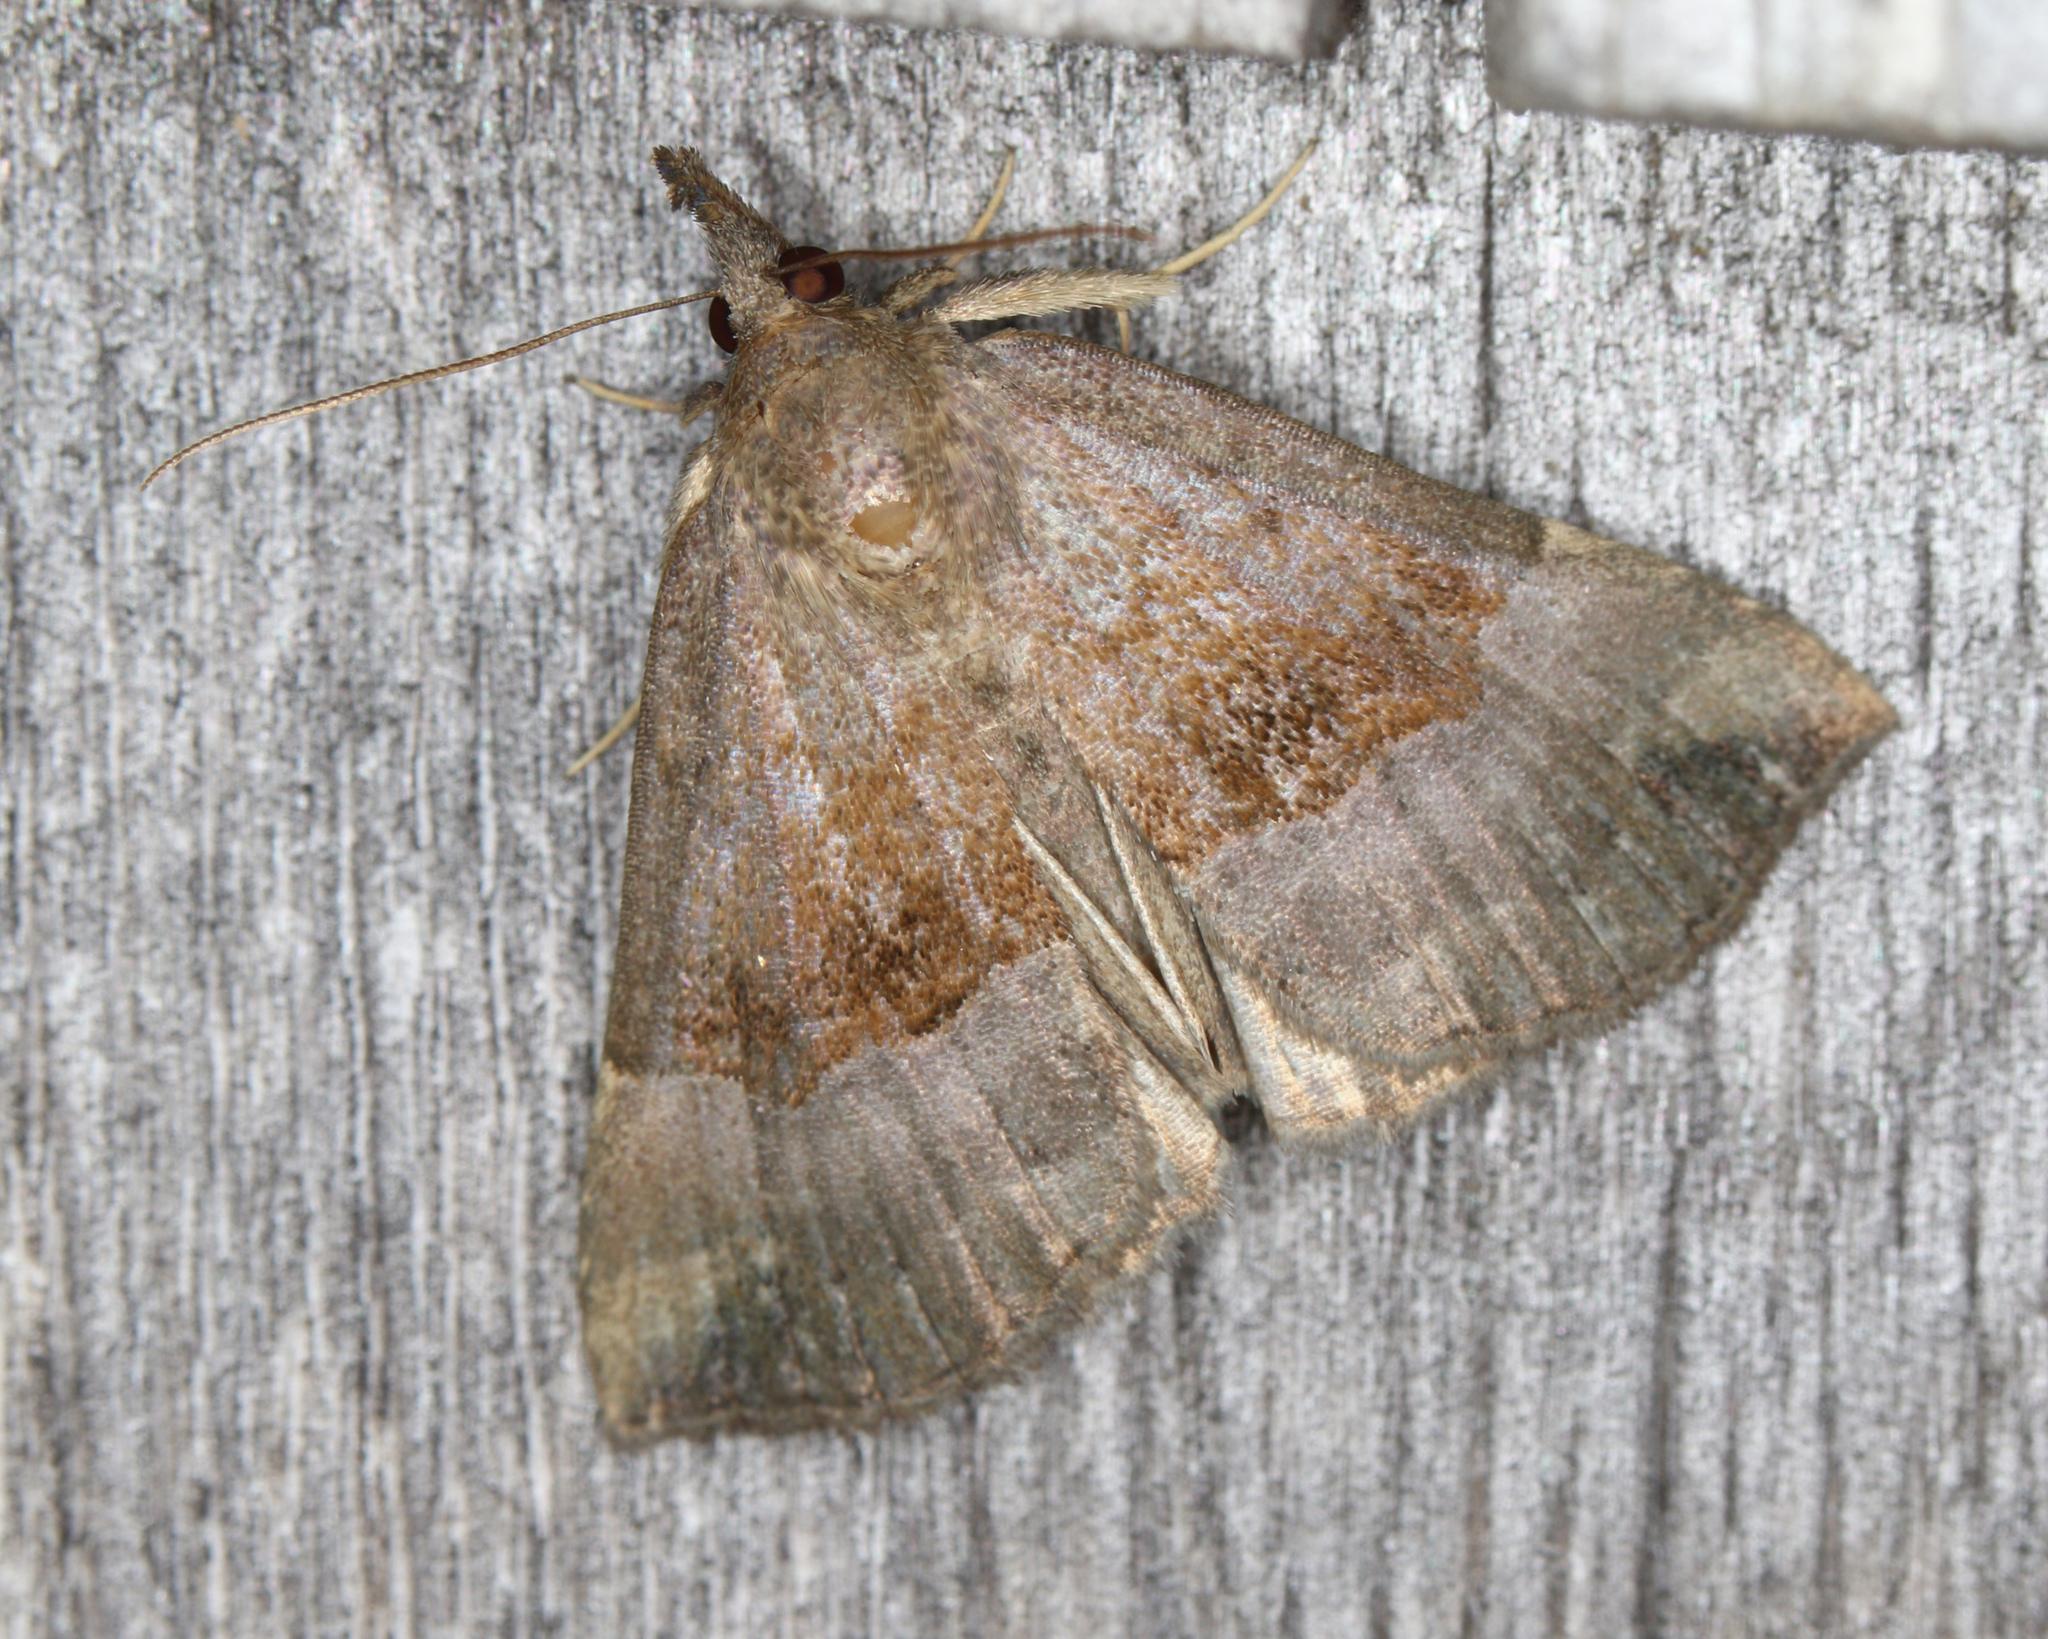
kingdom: Animalia
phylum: Arthropoda
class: Insecta
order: Lepidoptera
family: Erebidae
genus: Hypena
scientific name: Hypena madefactalis
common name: Gray-edged snout
